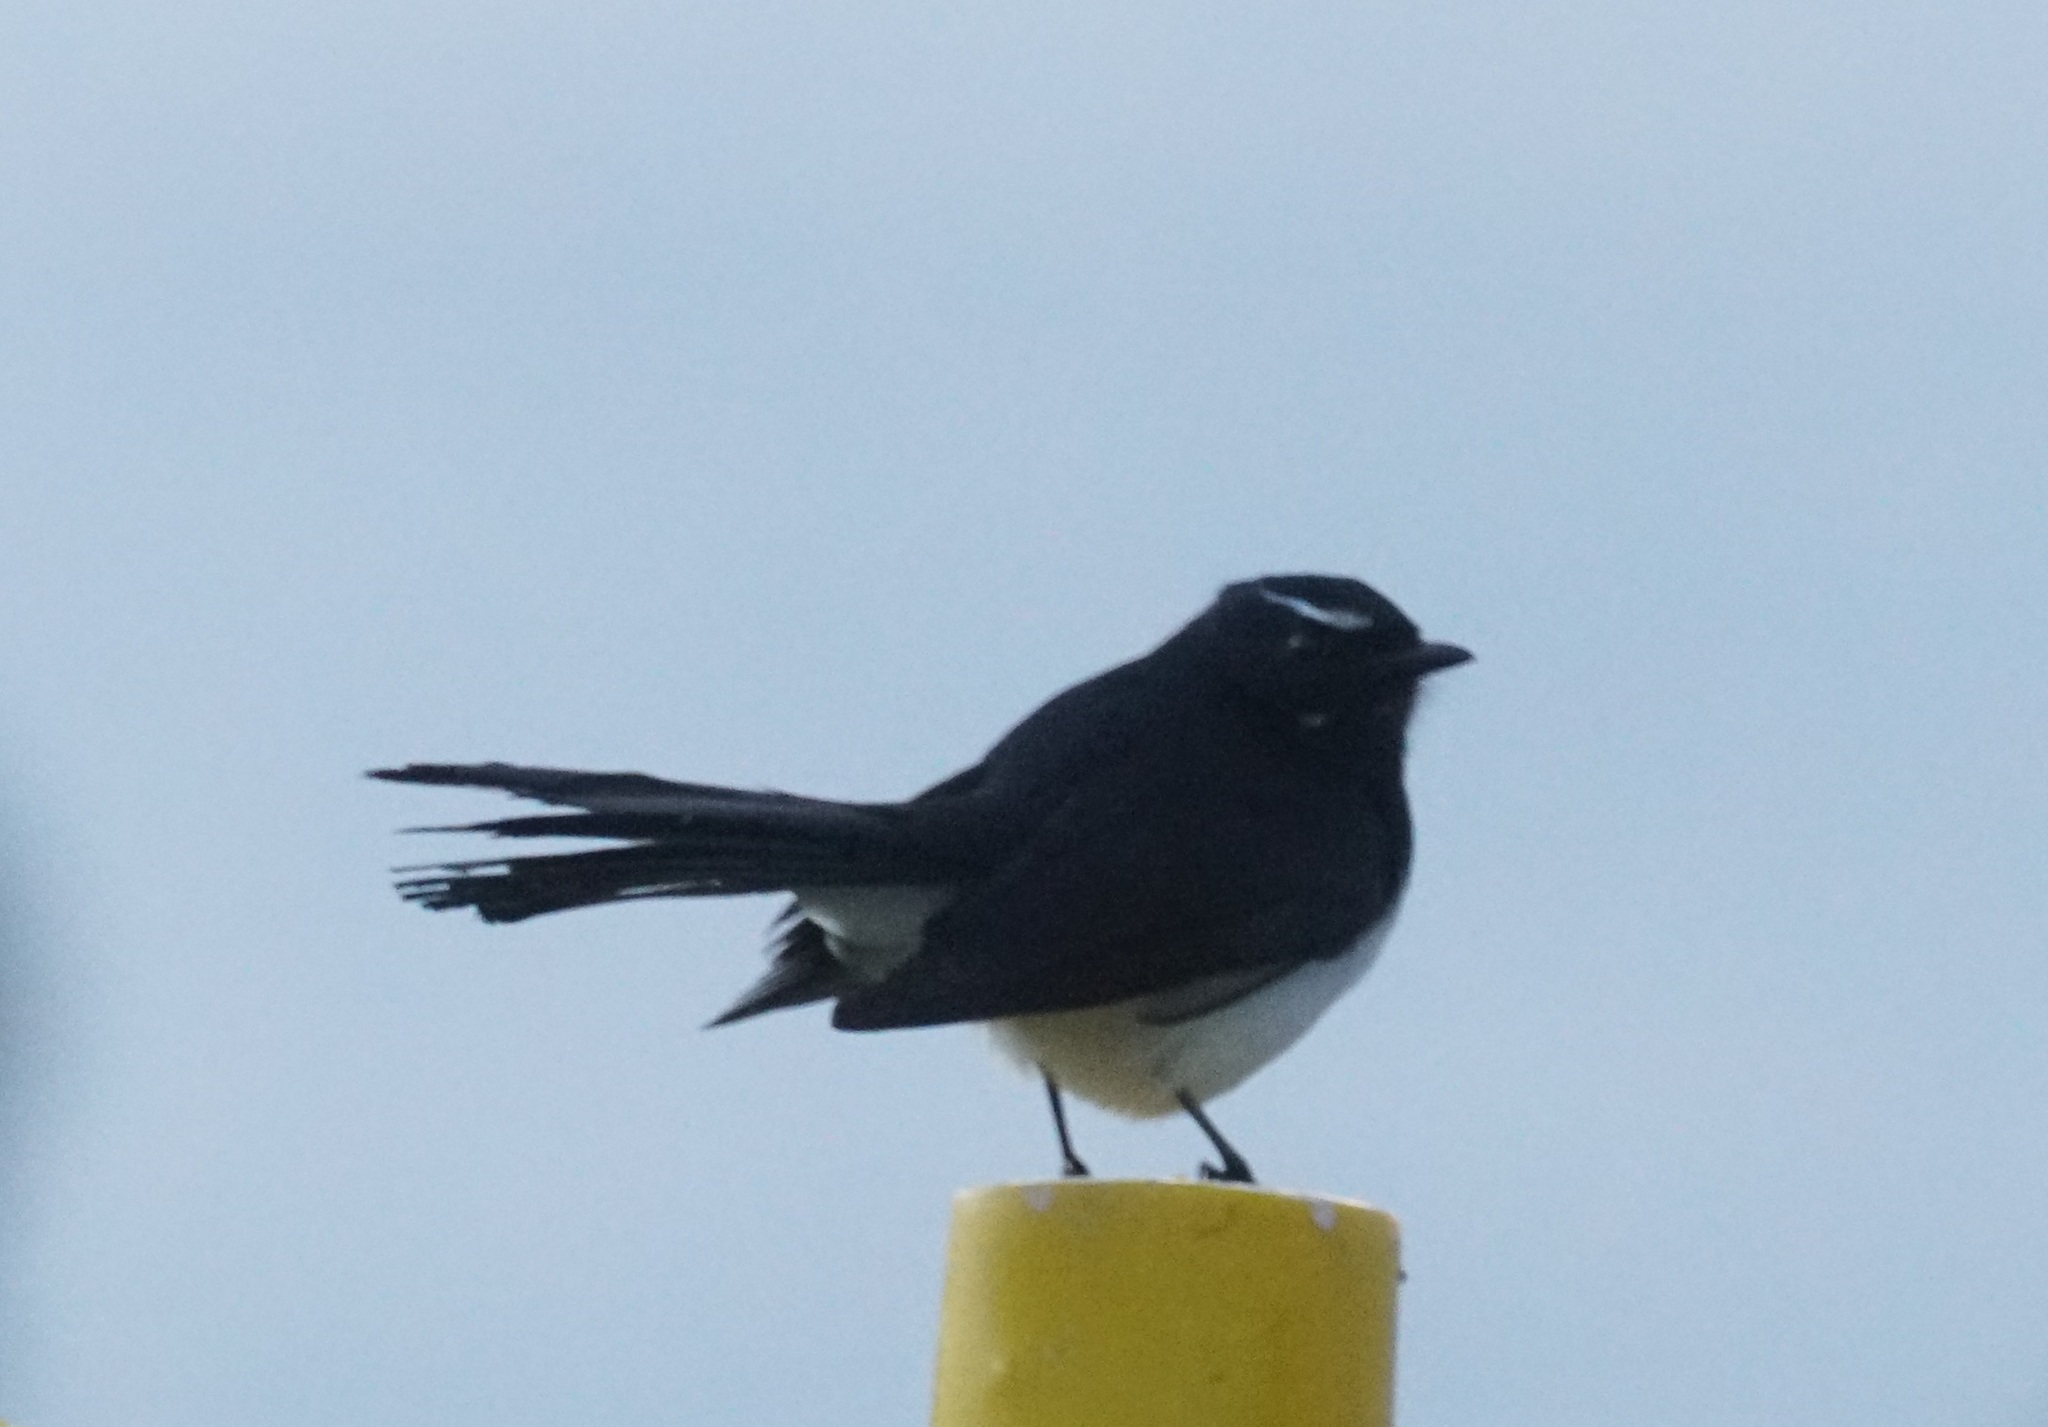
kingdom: Animalia
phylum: Chordata
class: Aves
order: Passeriformes
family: Rhipiduridae
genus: Rhipidura
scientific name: Rhipidura leucophrys
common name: Willie wagtail
